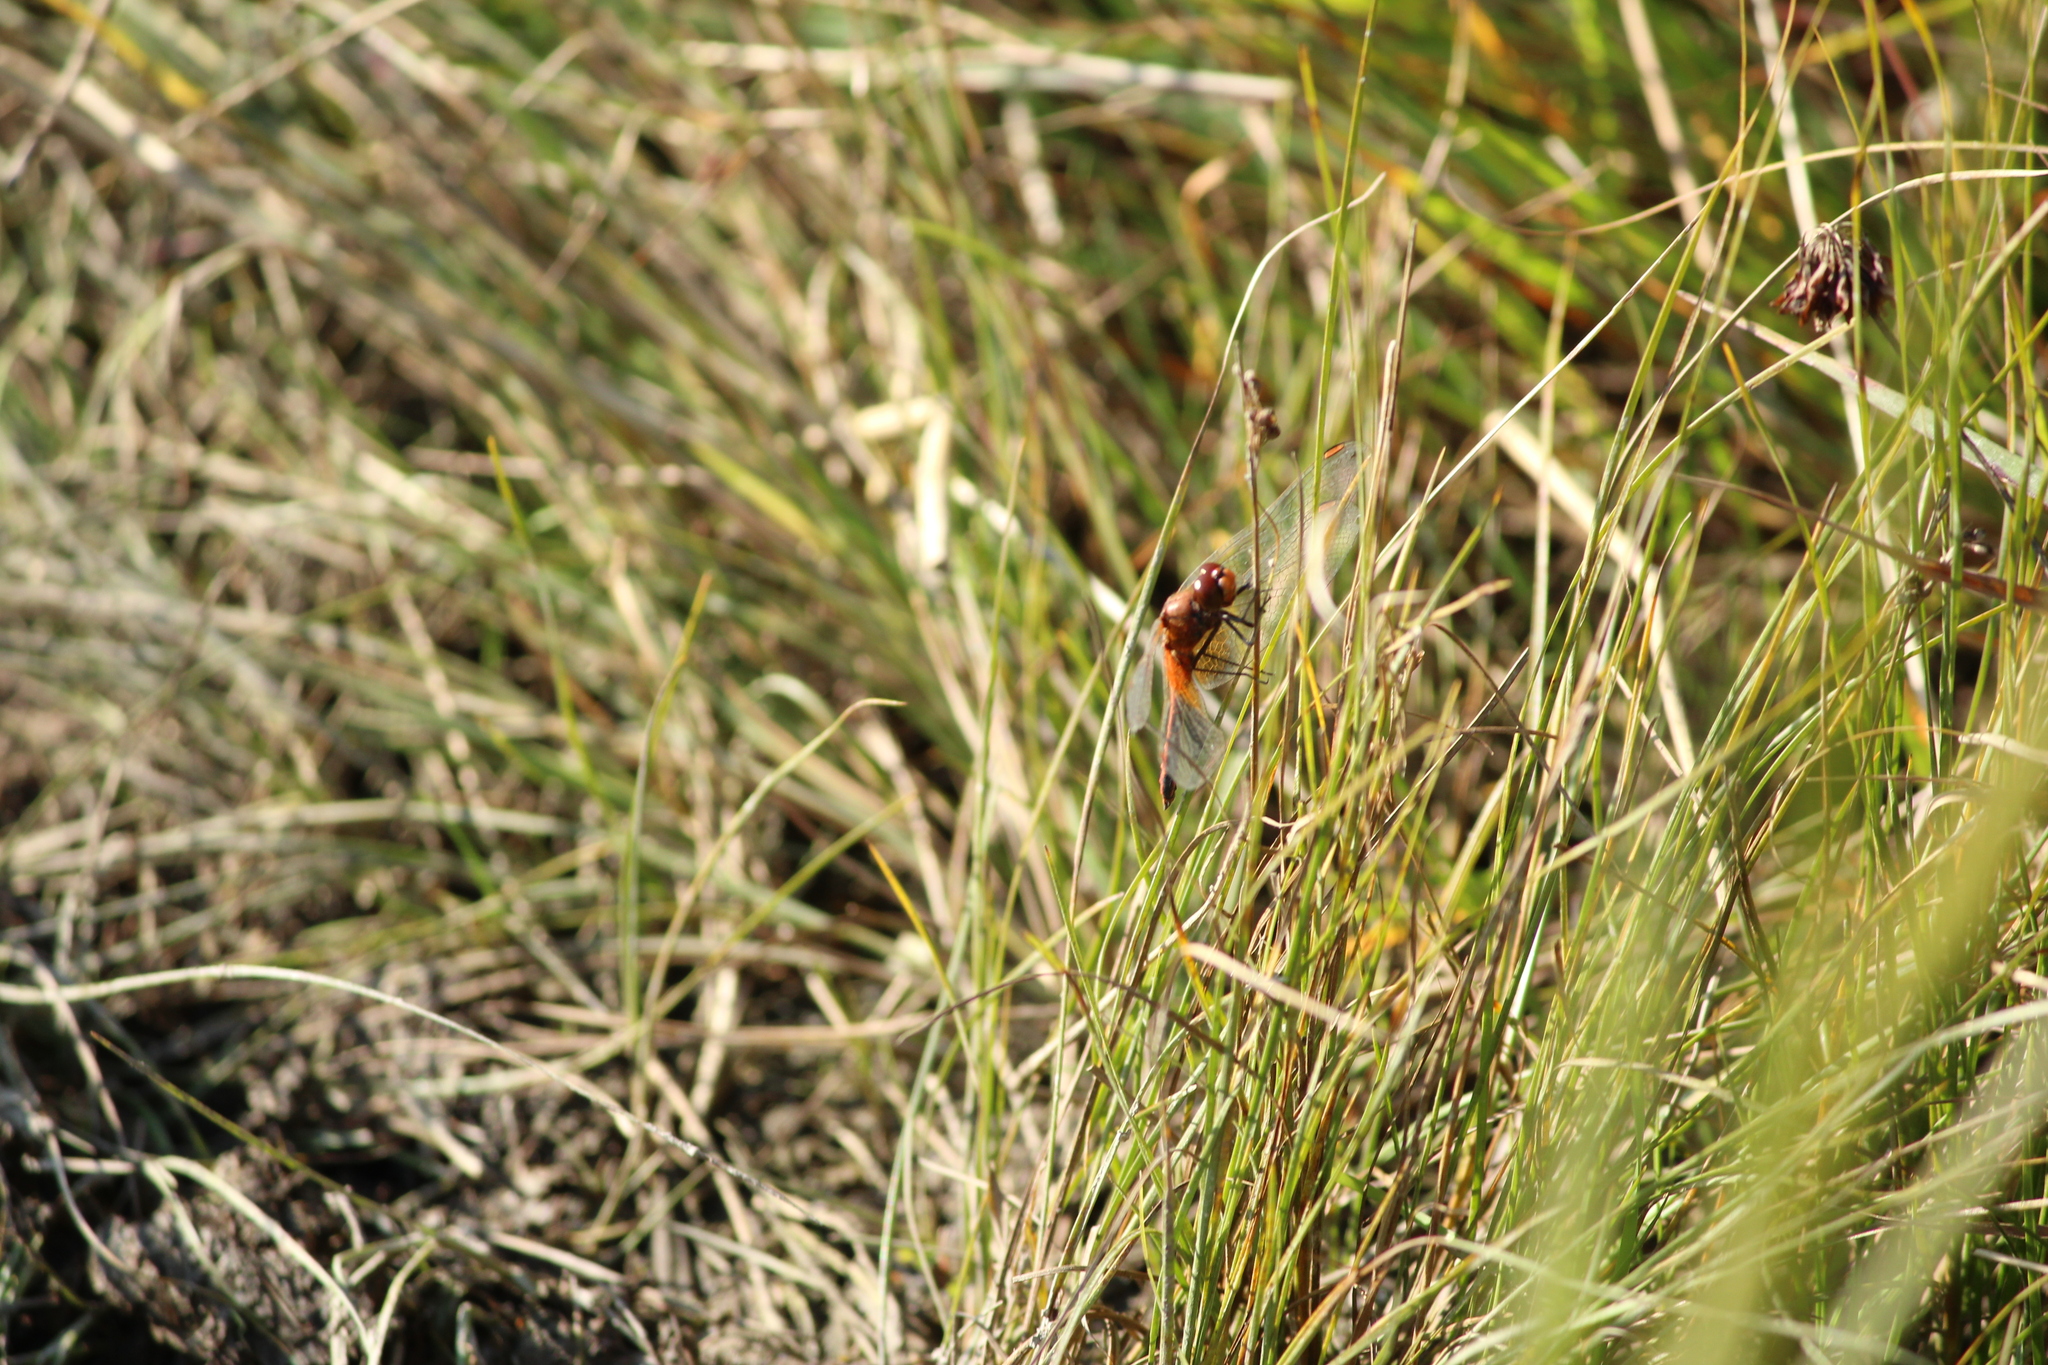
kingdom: Animalia
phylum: Arthropoda
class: Insecta
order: Odonata
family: Libellulidae
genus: Sympetrum
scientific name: Sympetrum flaveolum
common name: Yellow-winged darter
